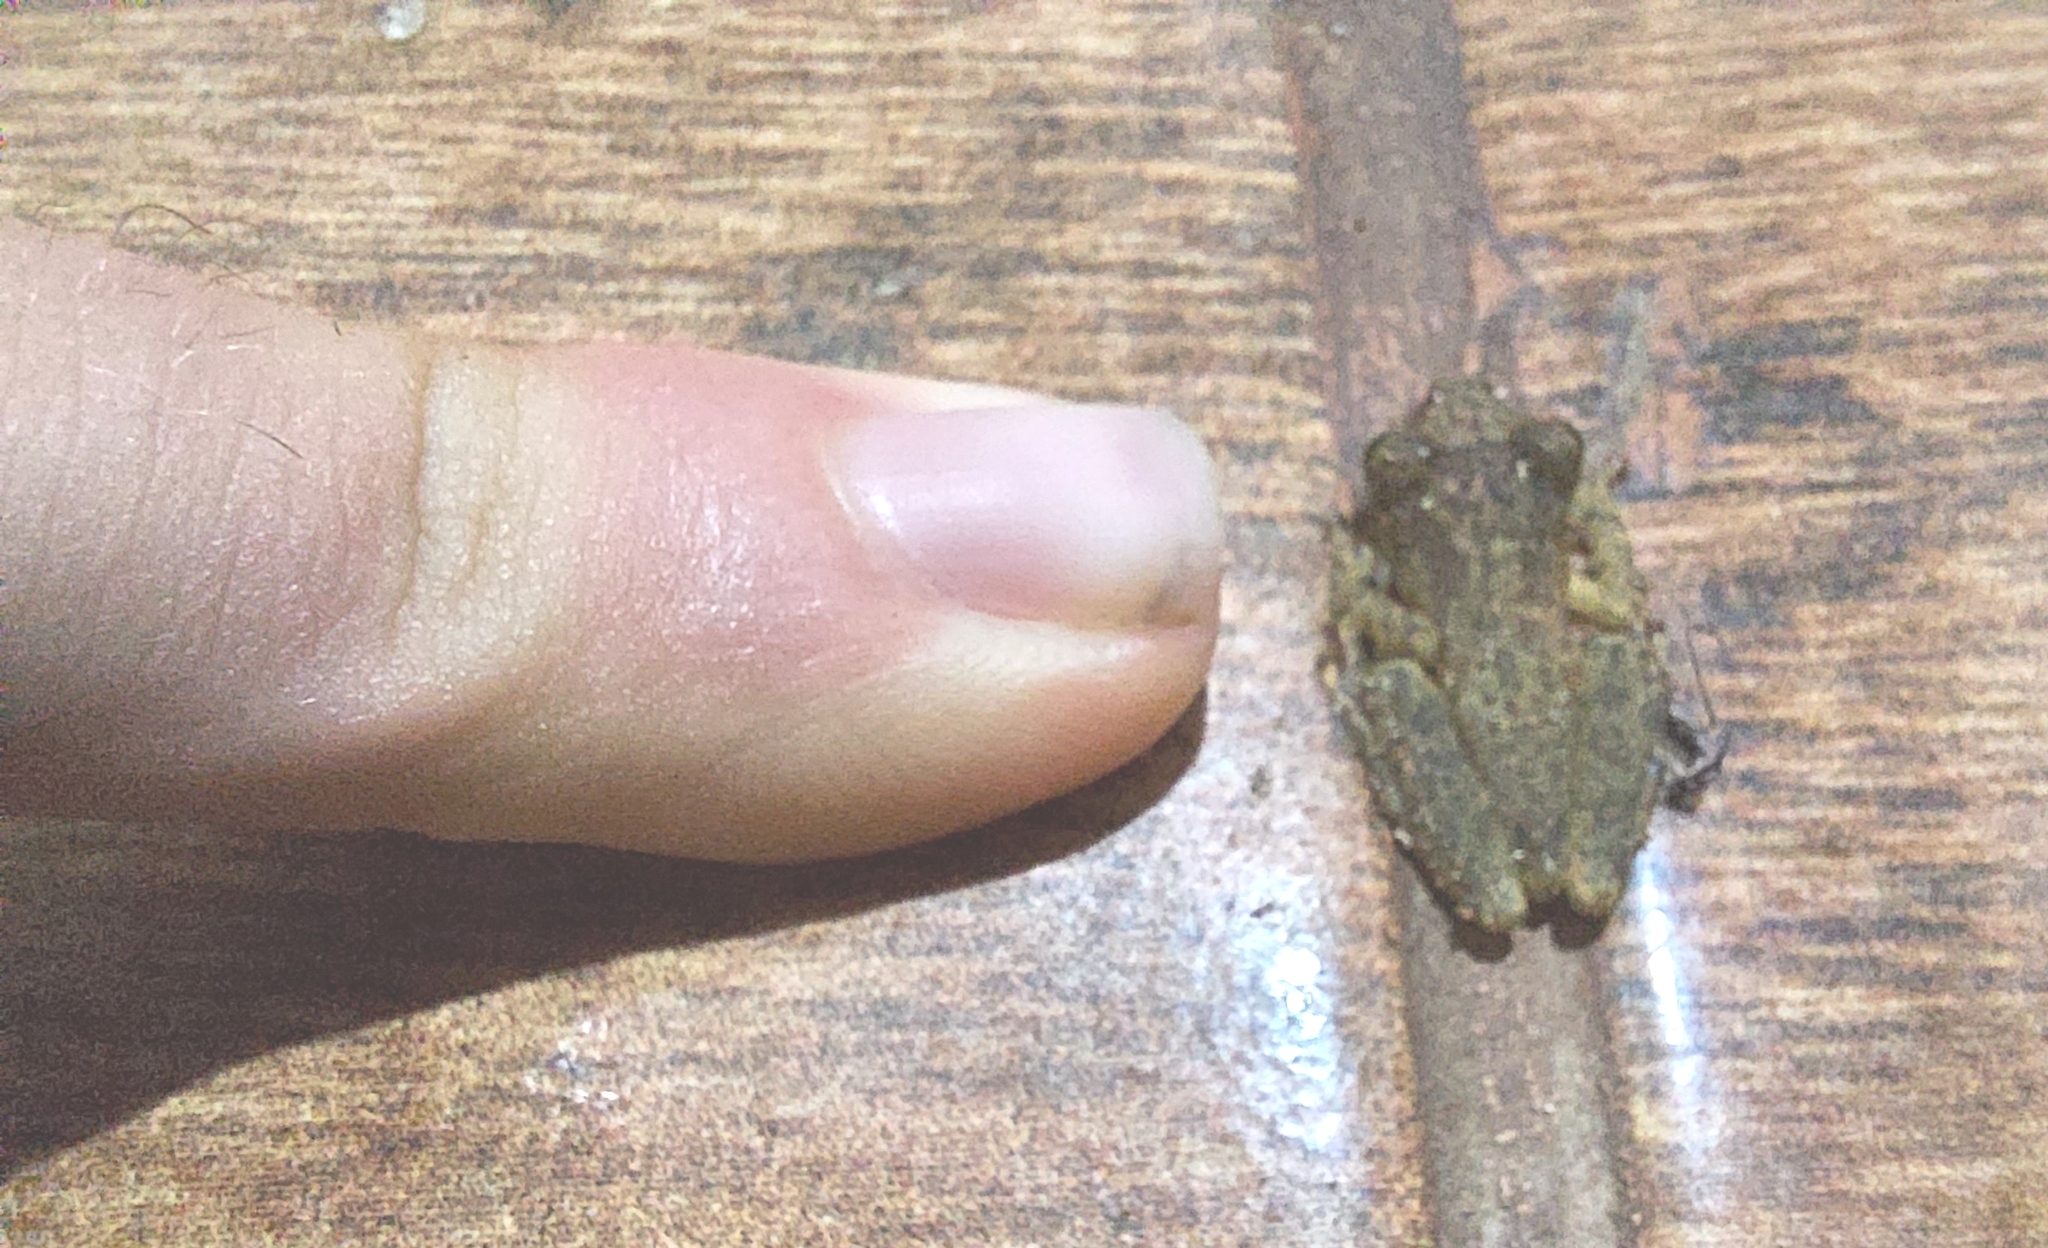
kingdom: Animalia
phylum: Chordata
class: Amphibia
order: Anura
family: Hylidae
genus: Ololygon
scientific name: Ololygon carnevallii
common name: Rio doce snouted treefrog
